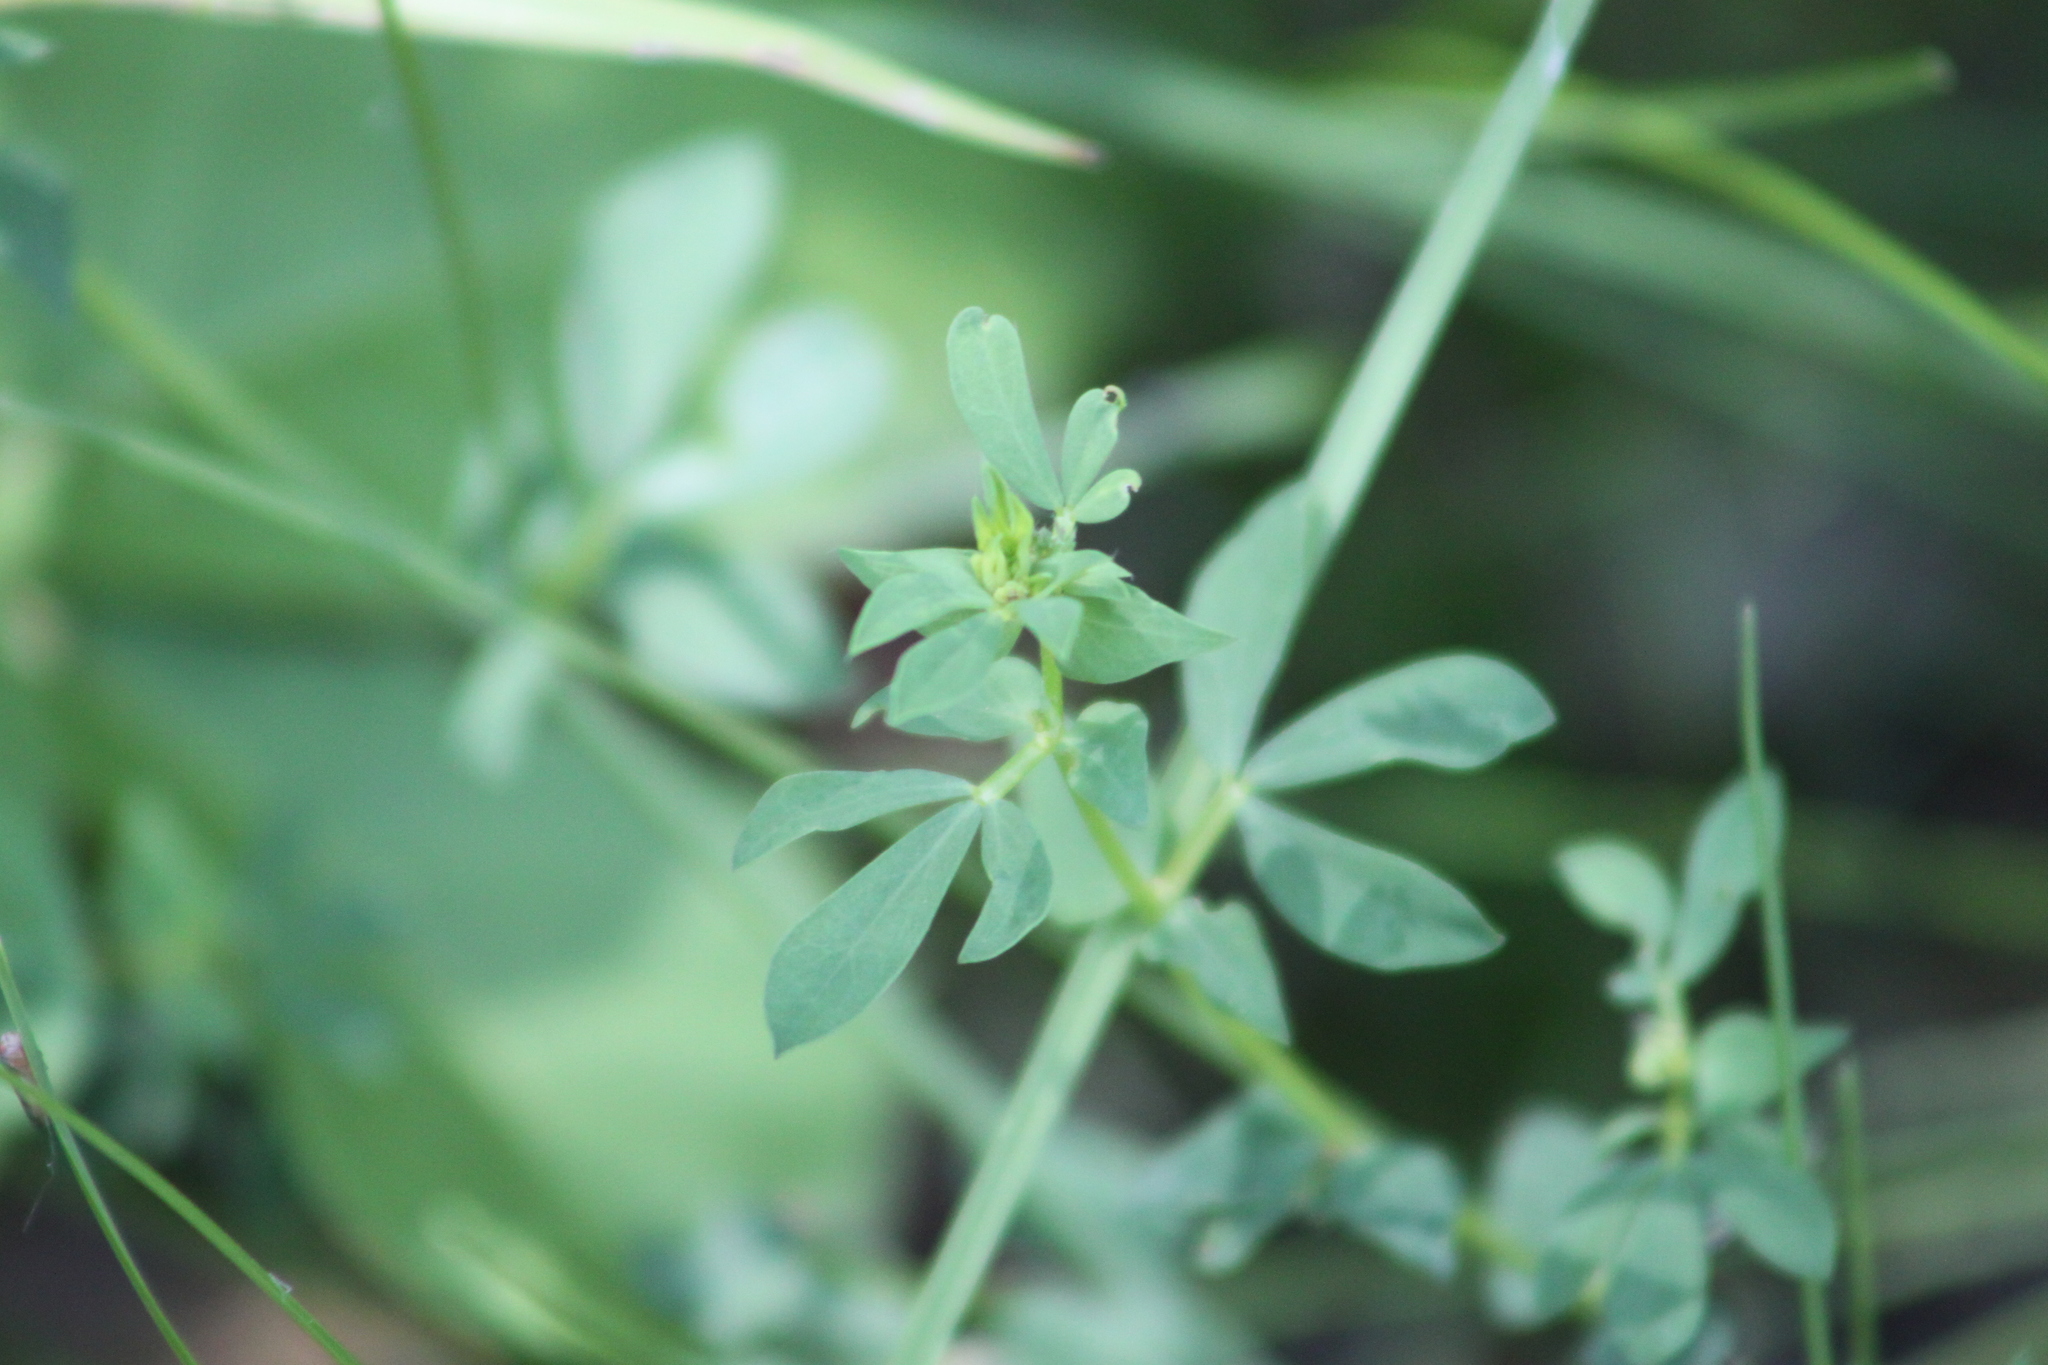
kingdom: Plantae
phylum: Tracheophyta
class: Magnoliopsida
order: Fabales
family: Fabaceae
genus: Lotus
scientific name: Lotus corniculatus
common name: Common bird's-foot-trefoil
